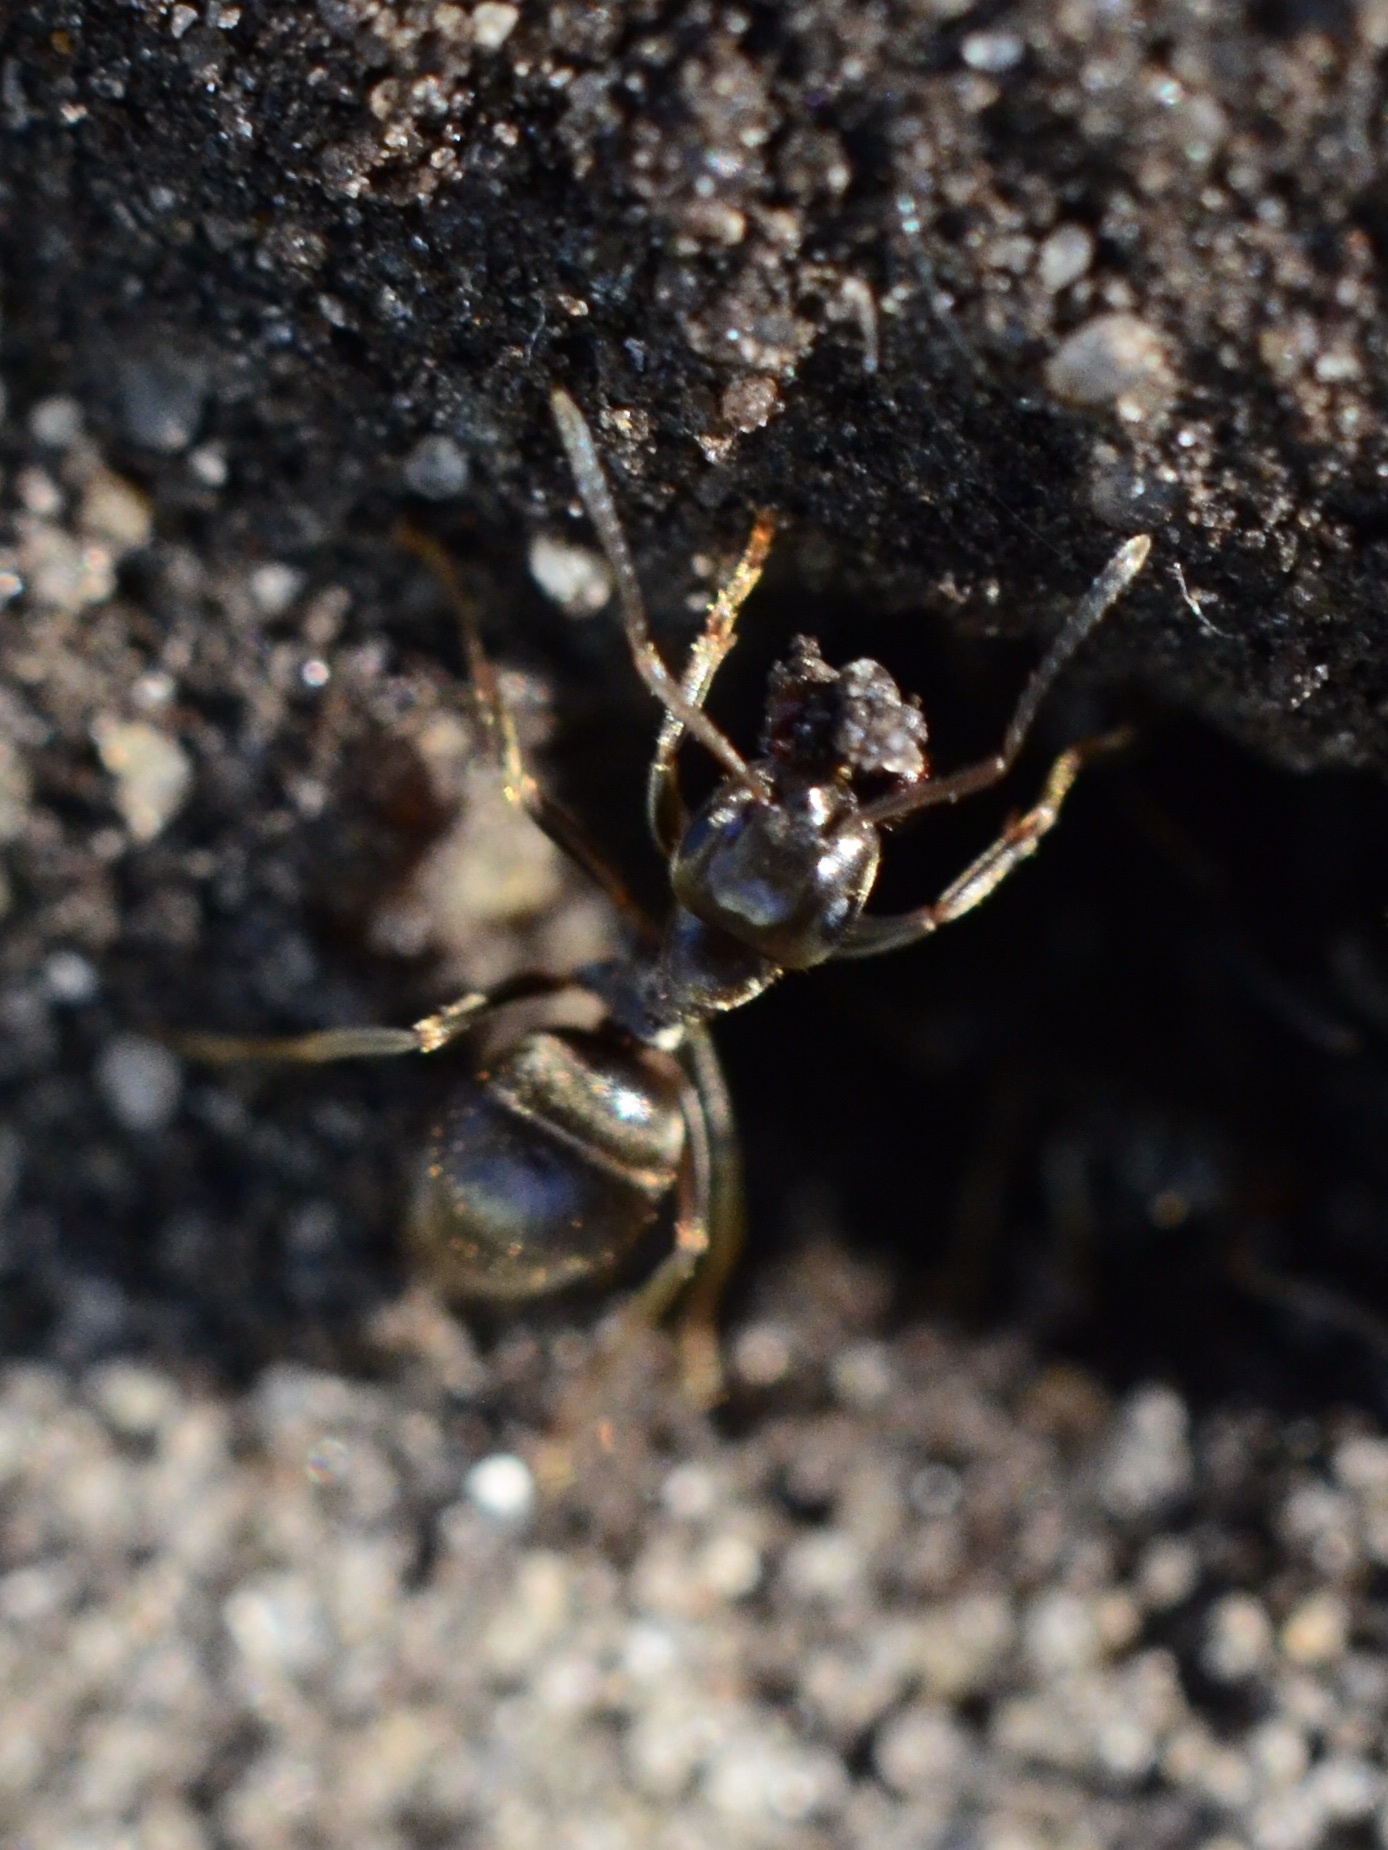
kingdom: Animalia
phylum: Arthropoda
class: Insecta
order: Hymenoptera
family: Formicidae
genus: Lasius
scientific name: Lasius
